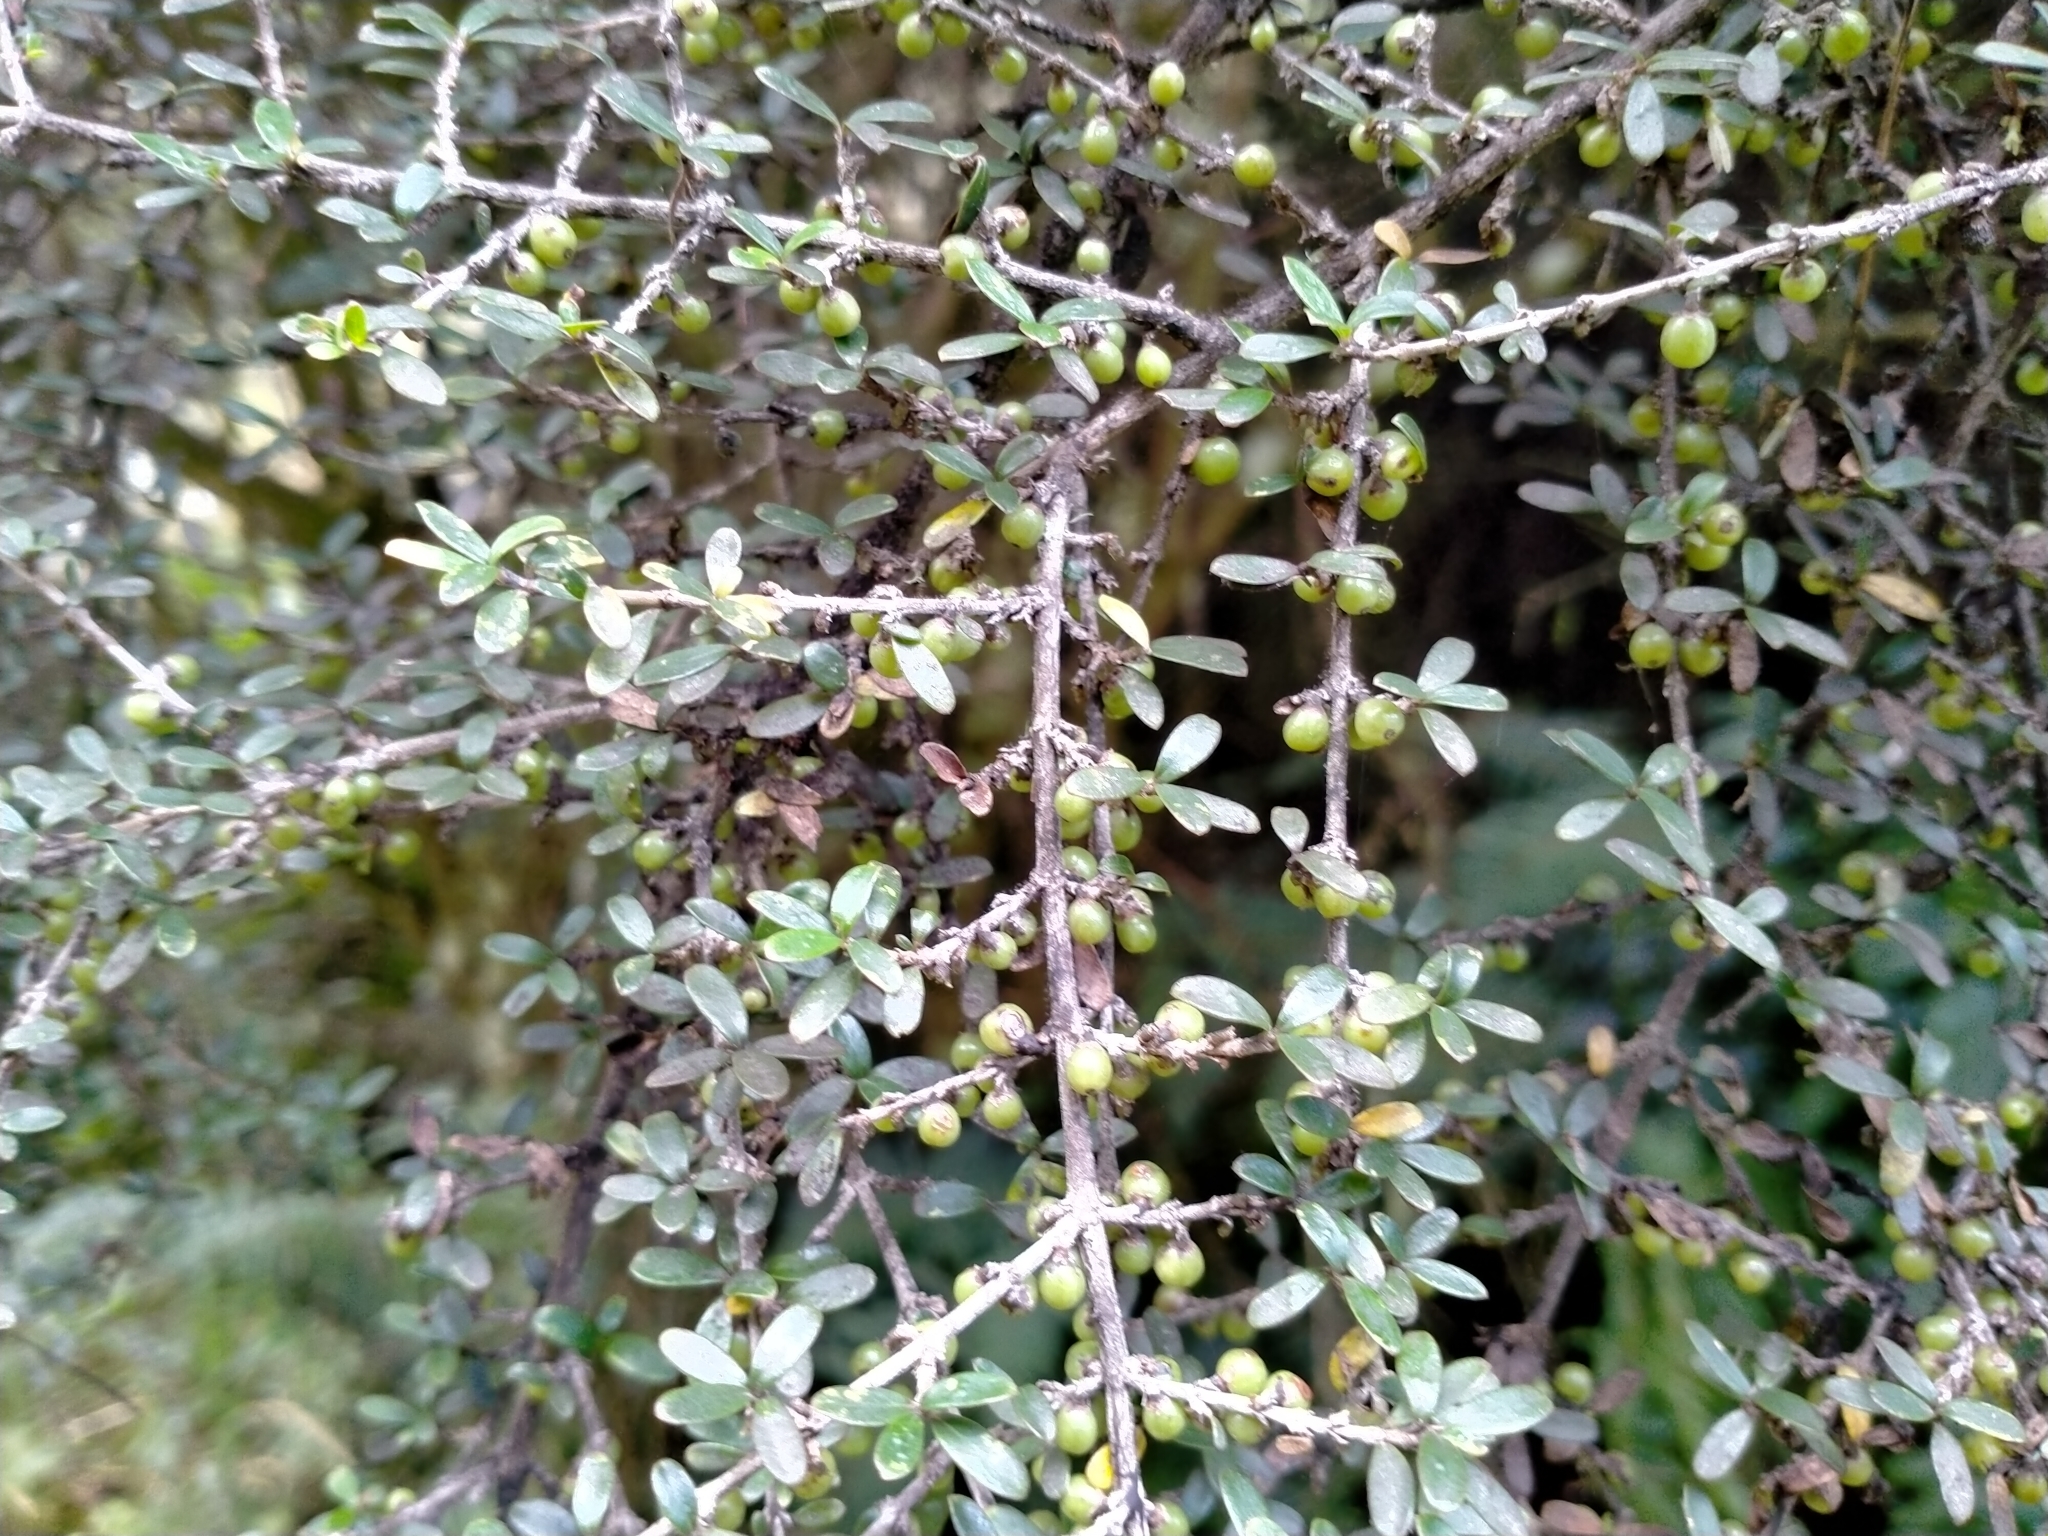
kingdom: Plantae
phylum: Tracheophyta
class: Magnoliopsida
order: Gentianales
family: Rubiaceae
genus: Coprosma
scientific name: Coprosma dumosa
